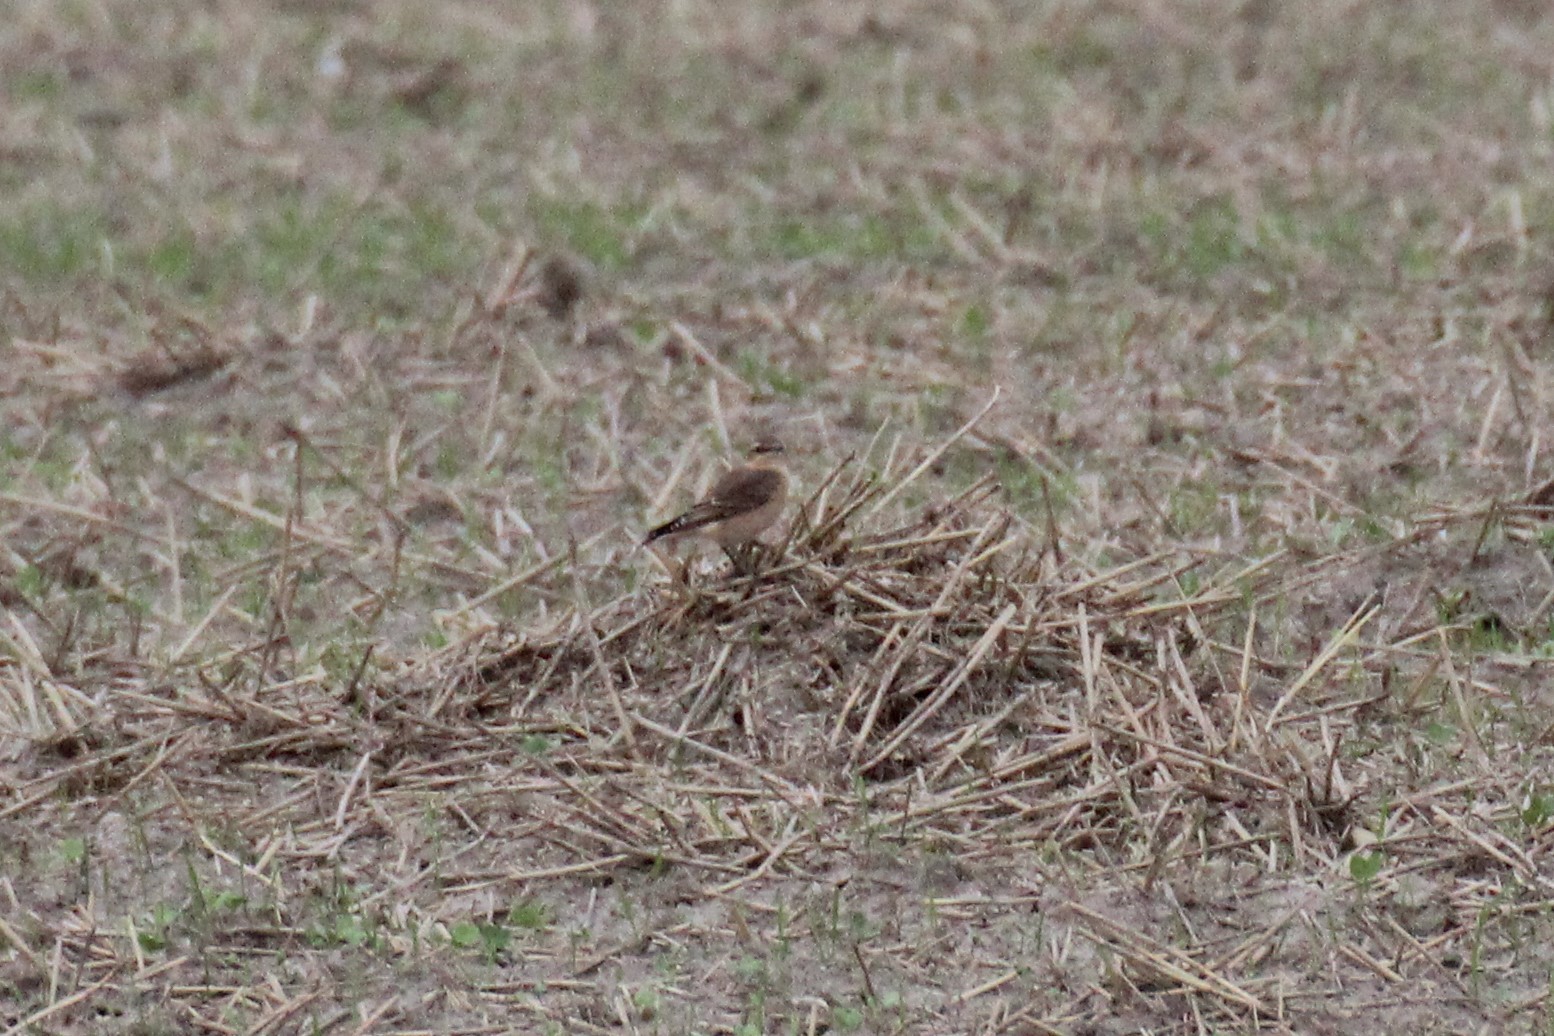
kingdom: Animalia
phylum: Chordata
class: Aves
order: Passeriformes
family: Muscicapidae
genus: Oenanthe
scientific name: Oenanthe oenanthe
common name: Northern wheatear
